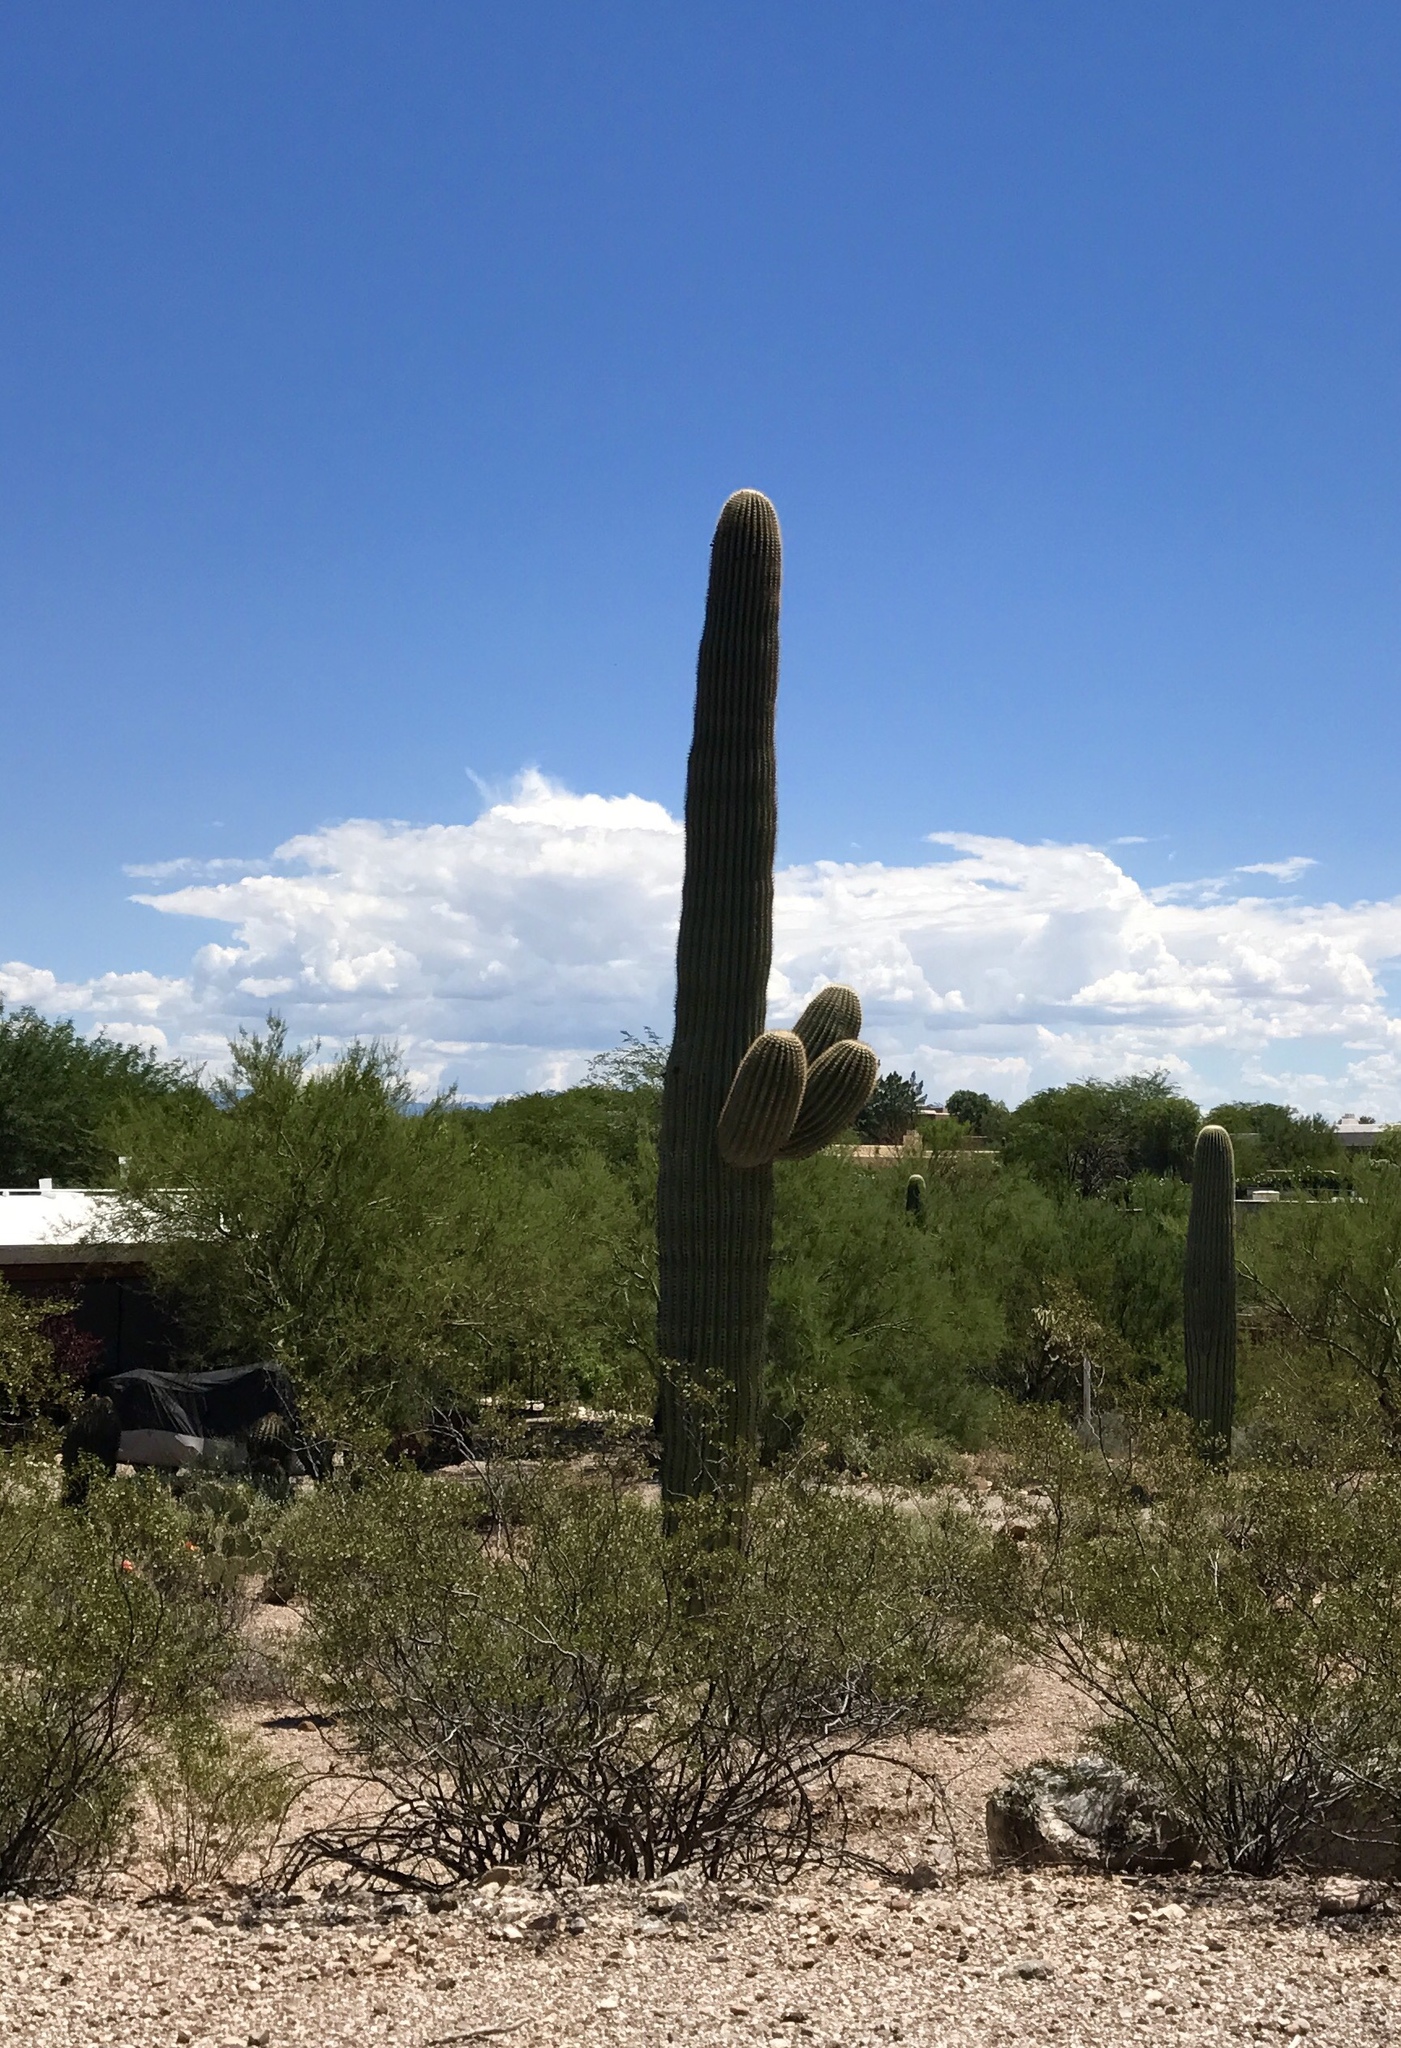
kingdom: Plantae
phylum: Tracheophyta
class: Magnoliopsida
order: Caryophyllales
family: Cactaceae
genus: Carnegiea
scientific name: Carnegiea gigantea
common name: Saguaro
